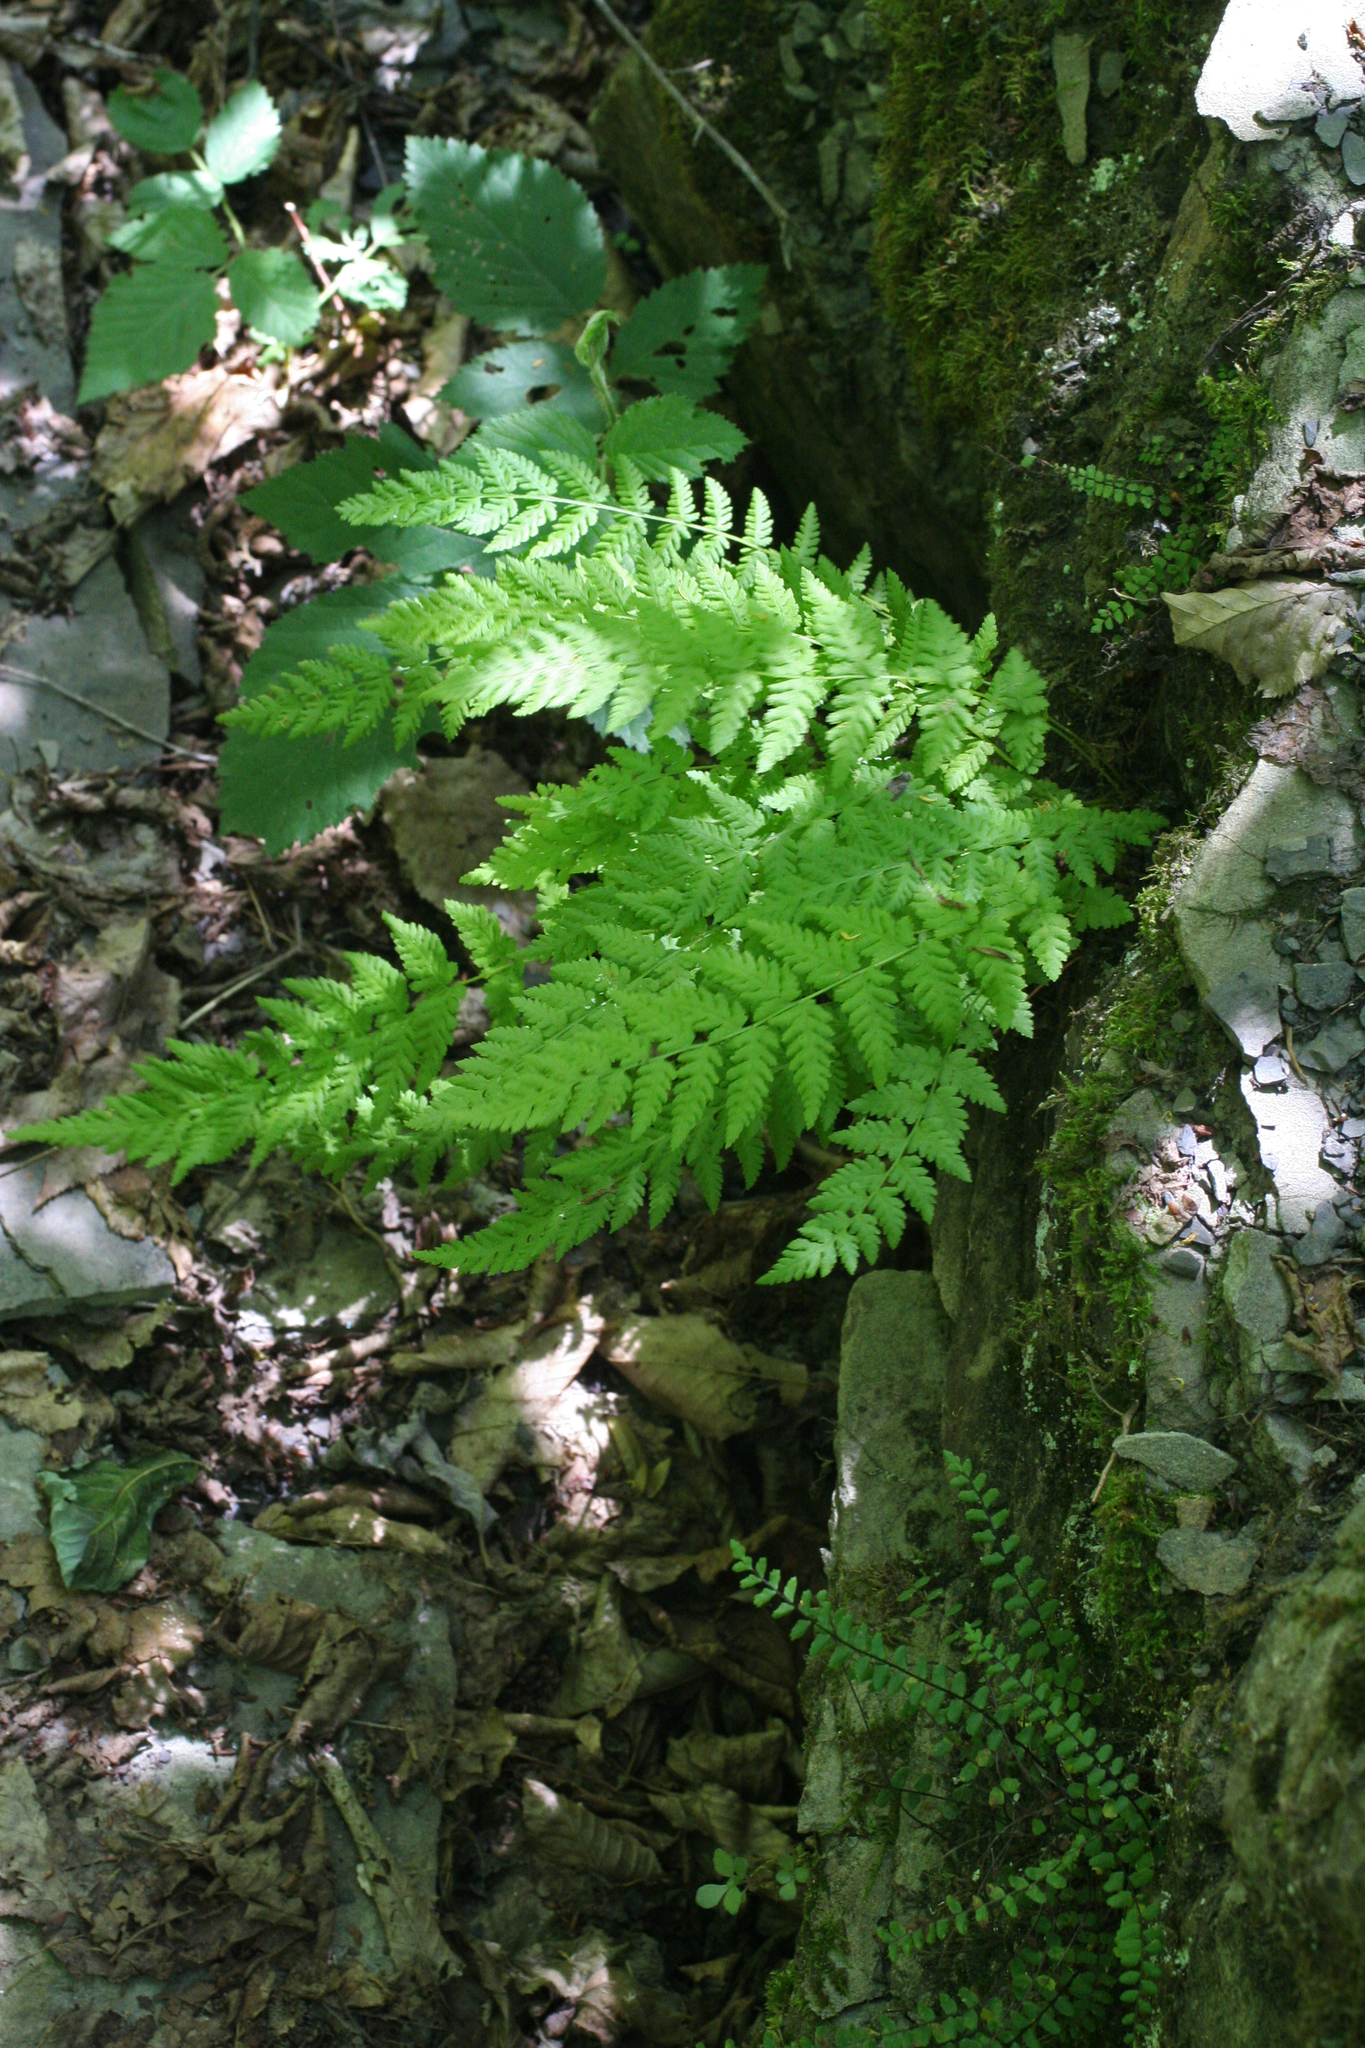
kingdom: Plantae
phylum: Tracheophyta
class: Polypodiopsida
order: Polypodiales
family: Woodsiaceae
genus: Physematium
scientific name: Physematium fragile
